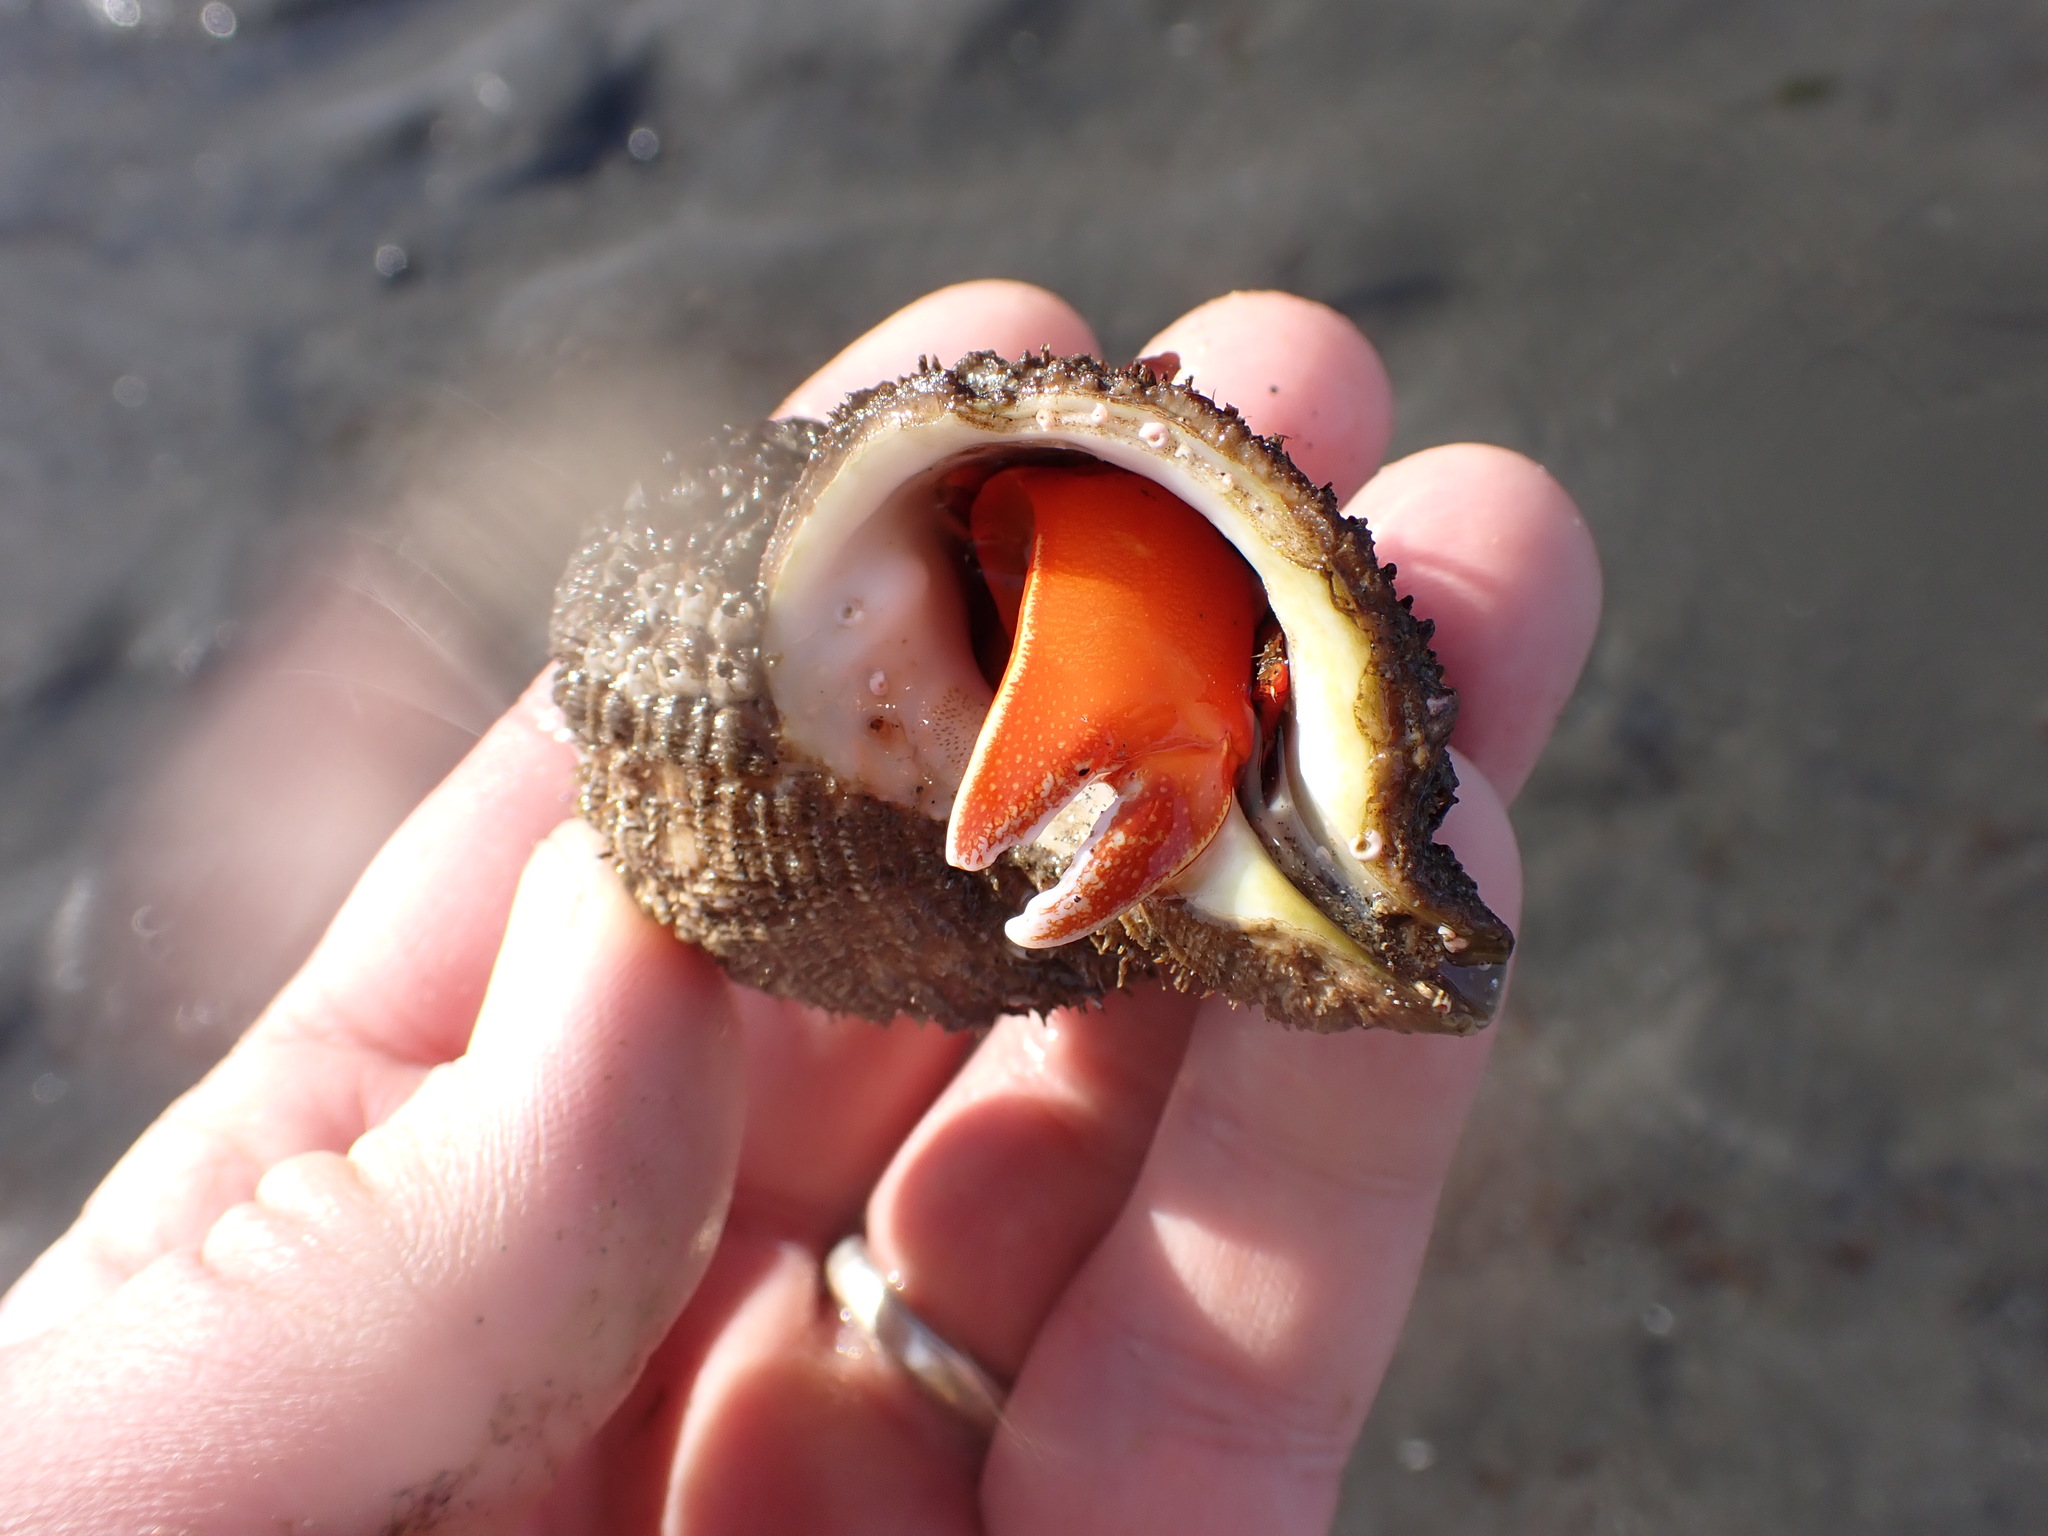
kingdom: Animalia
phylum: Arthropoda
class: Malacostraca
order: Decapoda
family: Paguridae
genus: Elassochirus
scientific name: Elassochirus gilli
